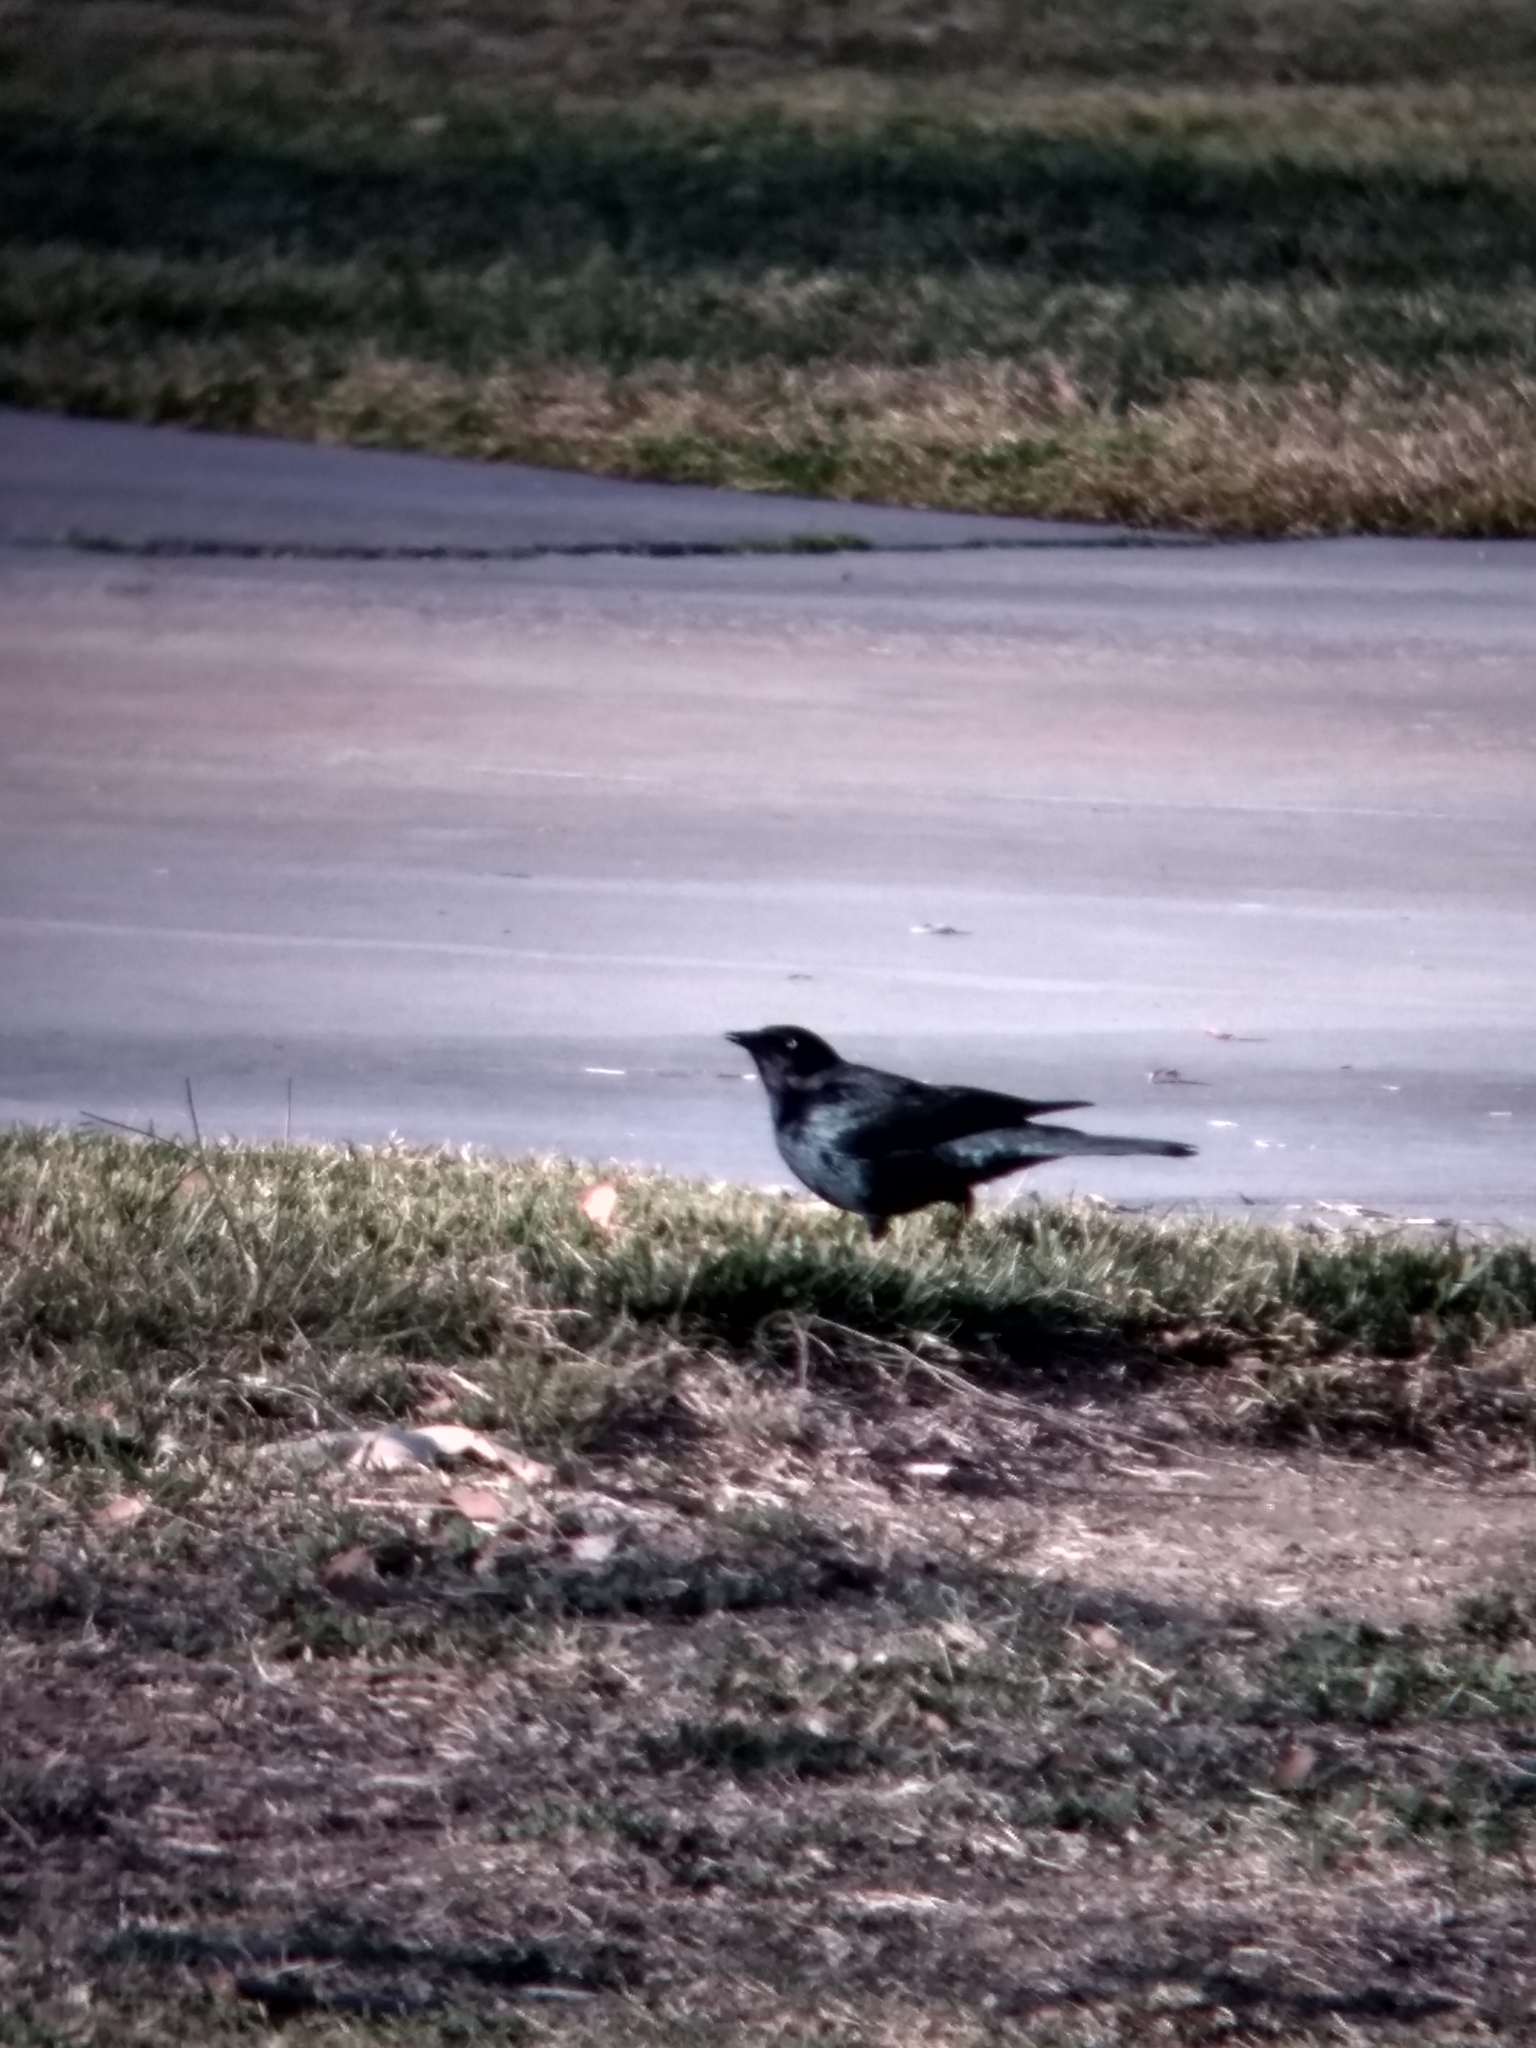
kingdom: Animalia
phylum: Chordata
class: Aves
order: Passeriformes
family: Icteridae
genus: Euphagus
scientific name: Euphagus cyanocephalus
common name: Brewer's blackbird
